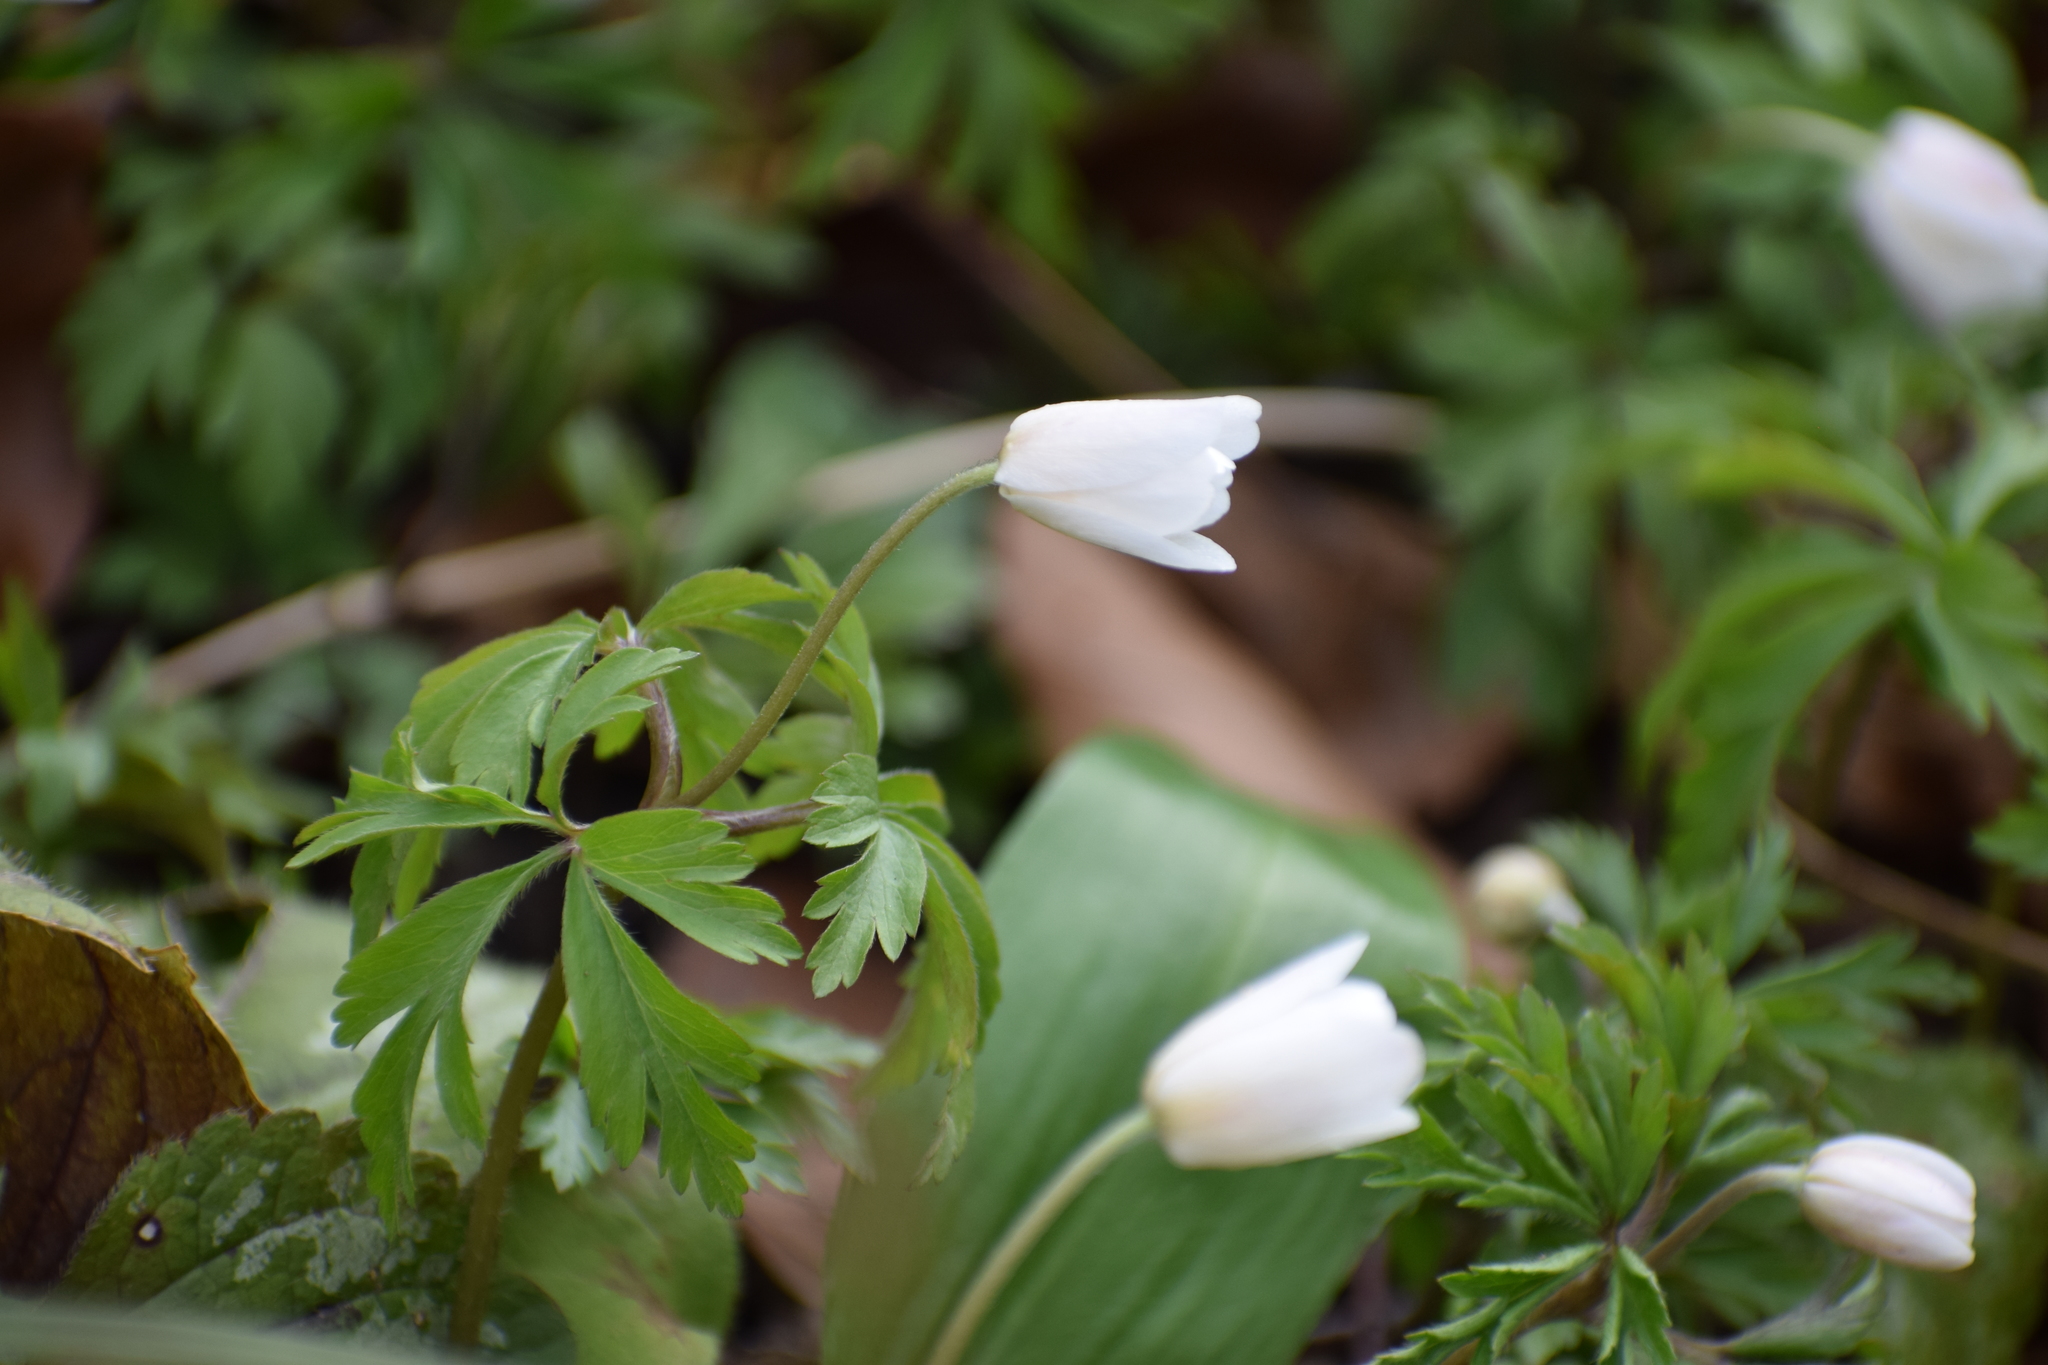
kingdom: Plantae
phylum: Tracheophyta
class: Magnoliopsida
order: Ranunculales
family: Ranunculaceae
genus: Anemone
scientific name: Anemone nemorosa
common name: Wood anemone
